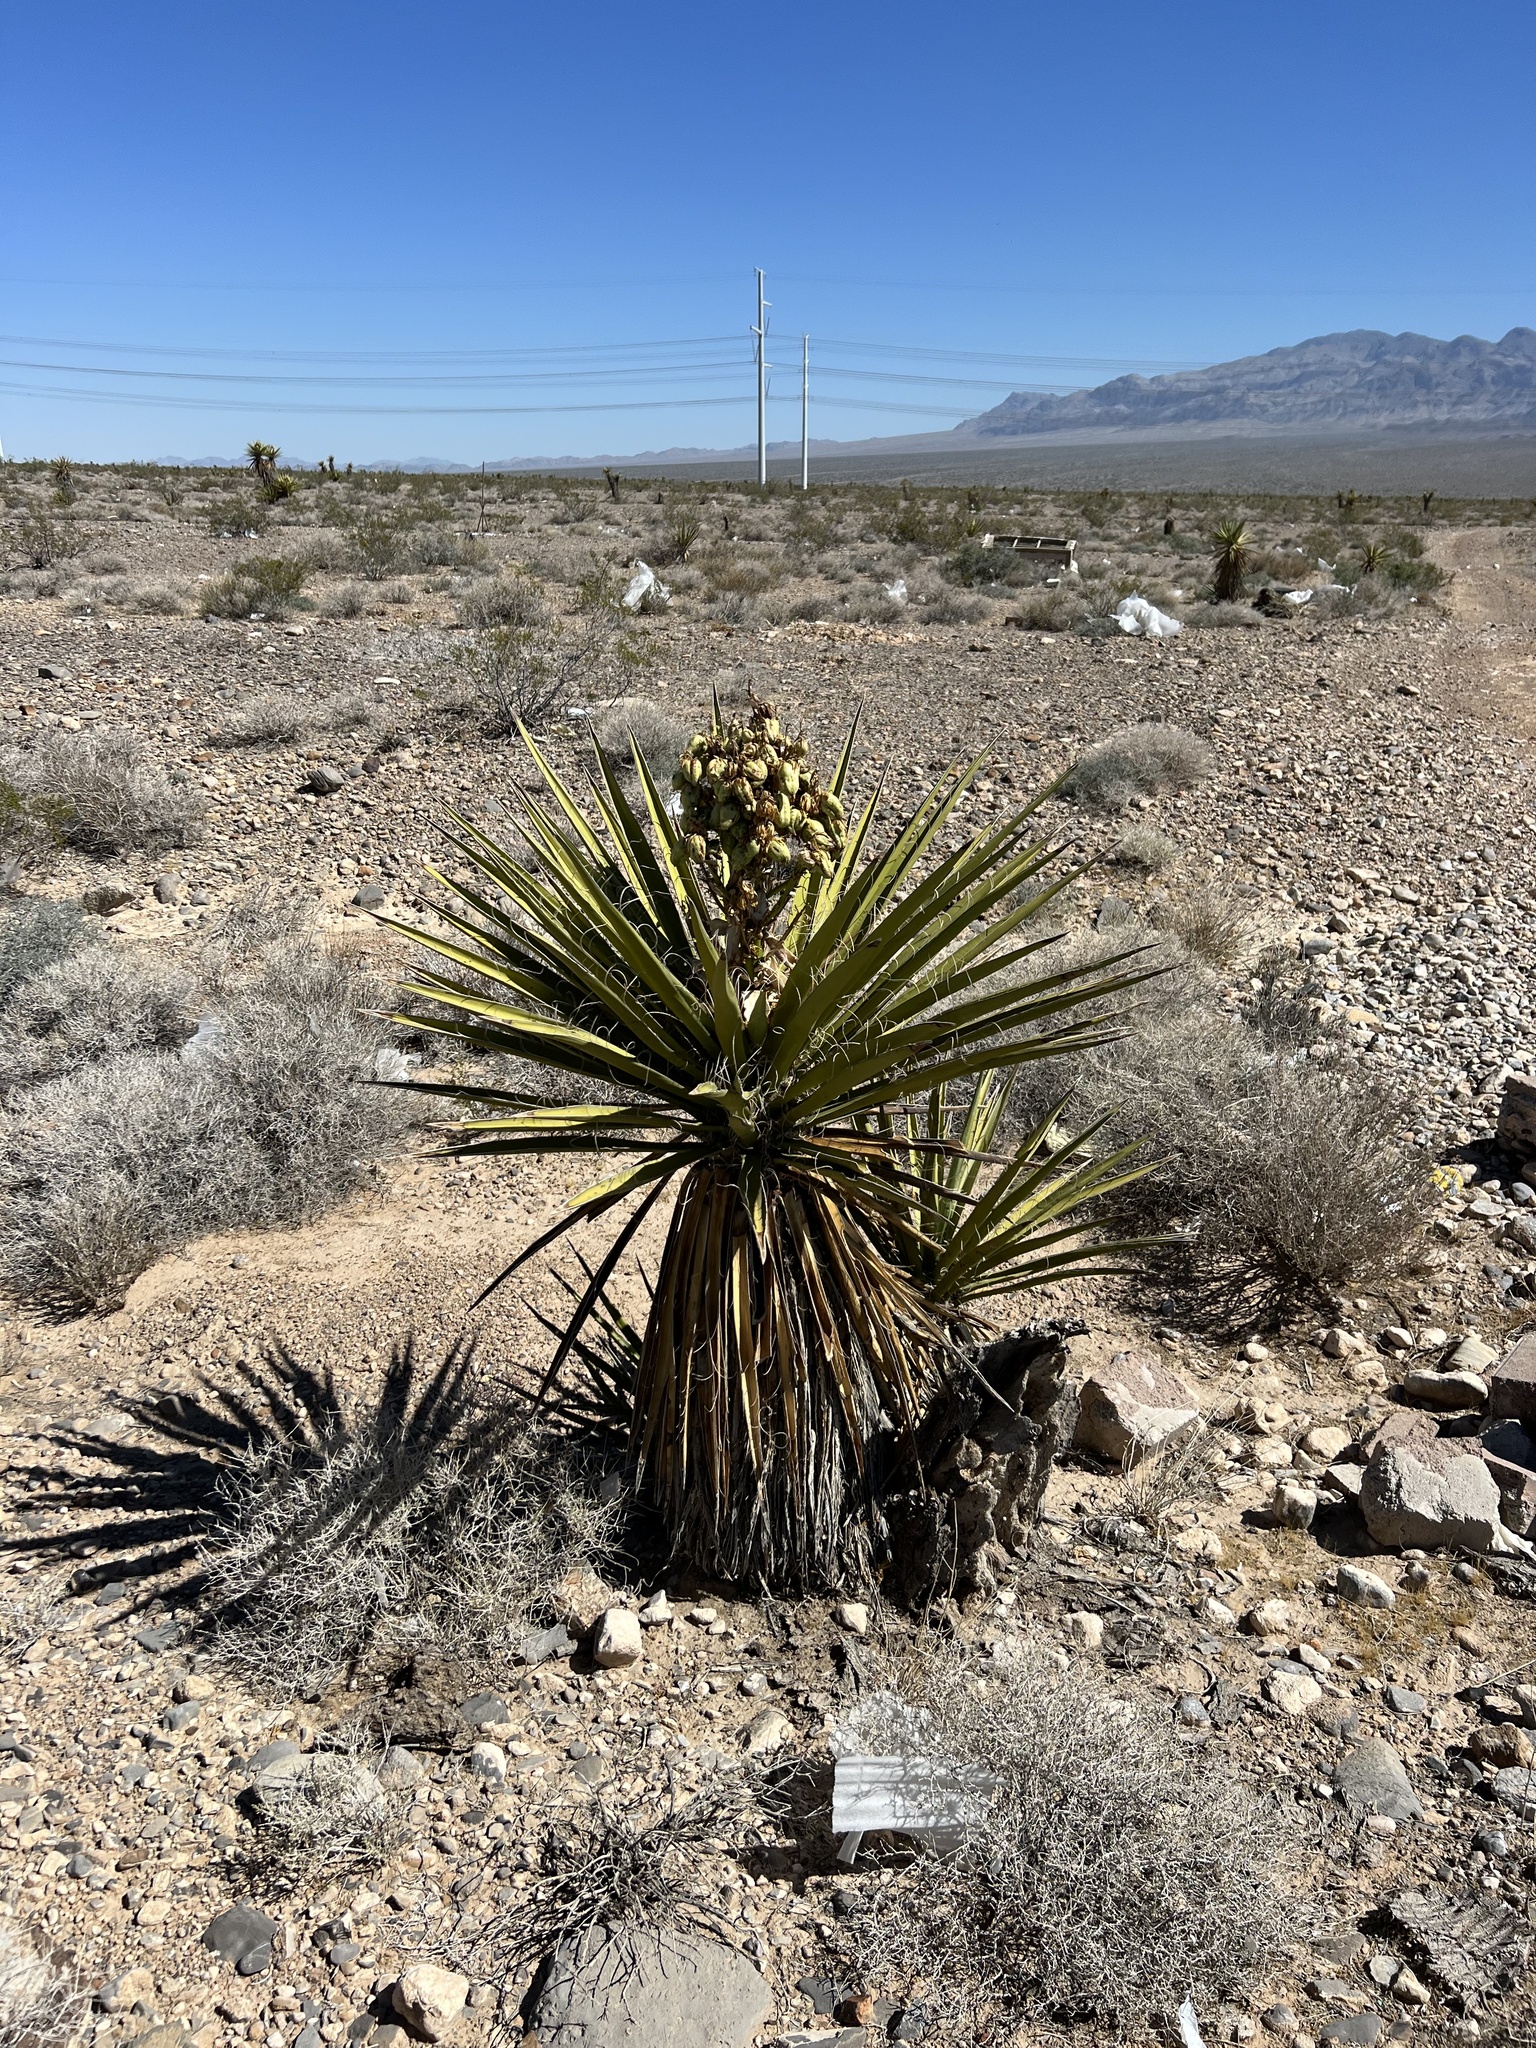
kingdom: Plantae
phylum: Tracheophyta
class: Liliopsida
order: Asparagales
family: Asparagaceae
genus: Yucca
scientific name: Yucca schidigera
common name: Mojave yucca
